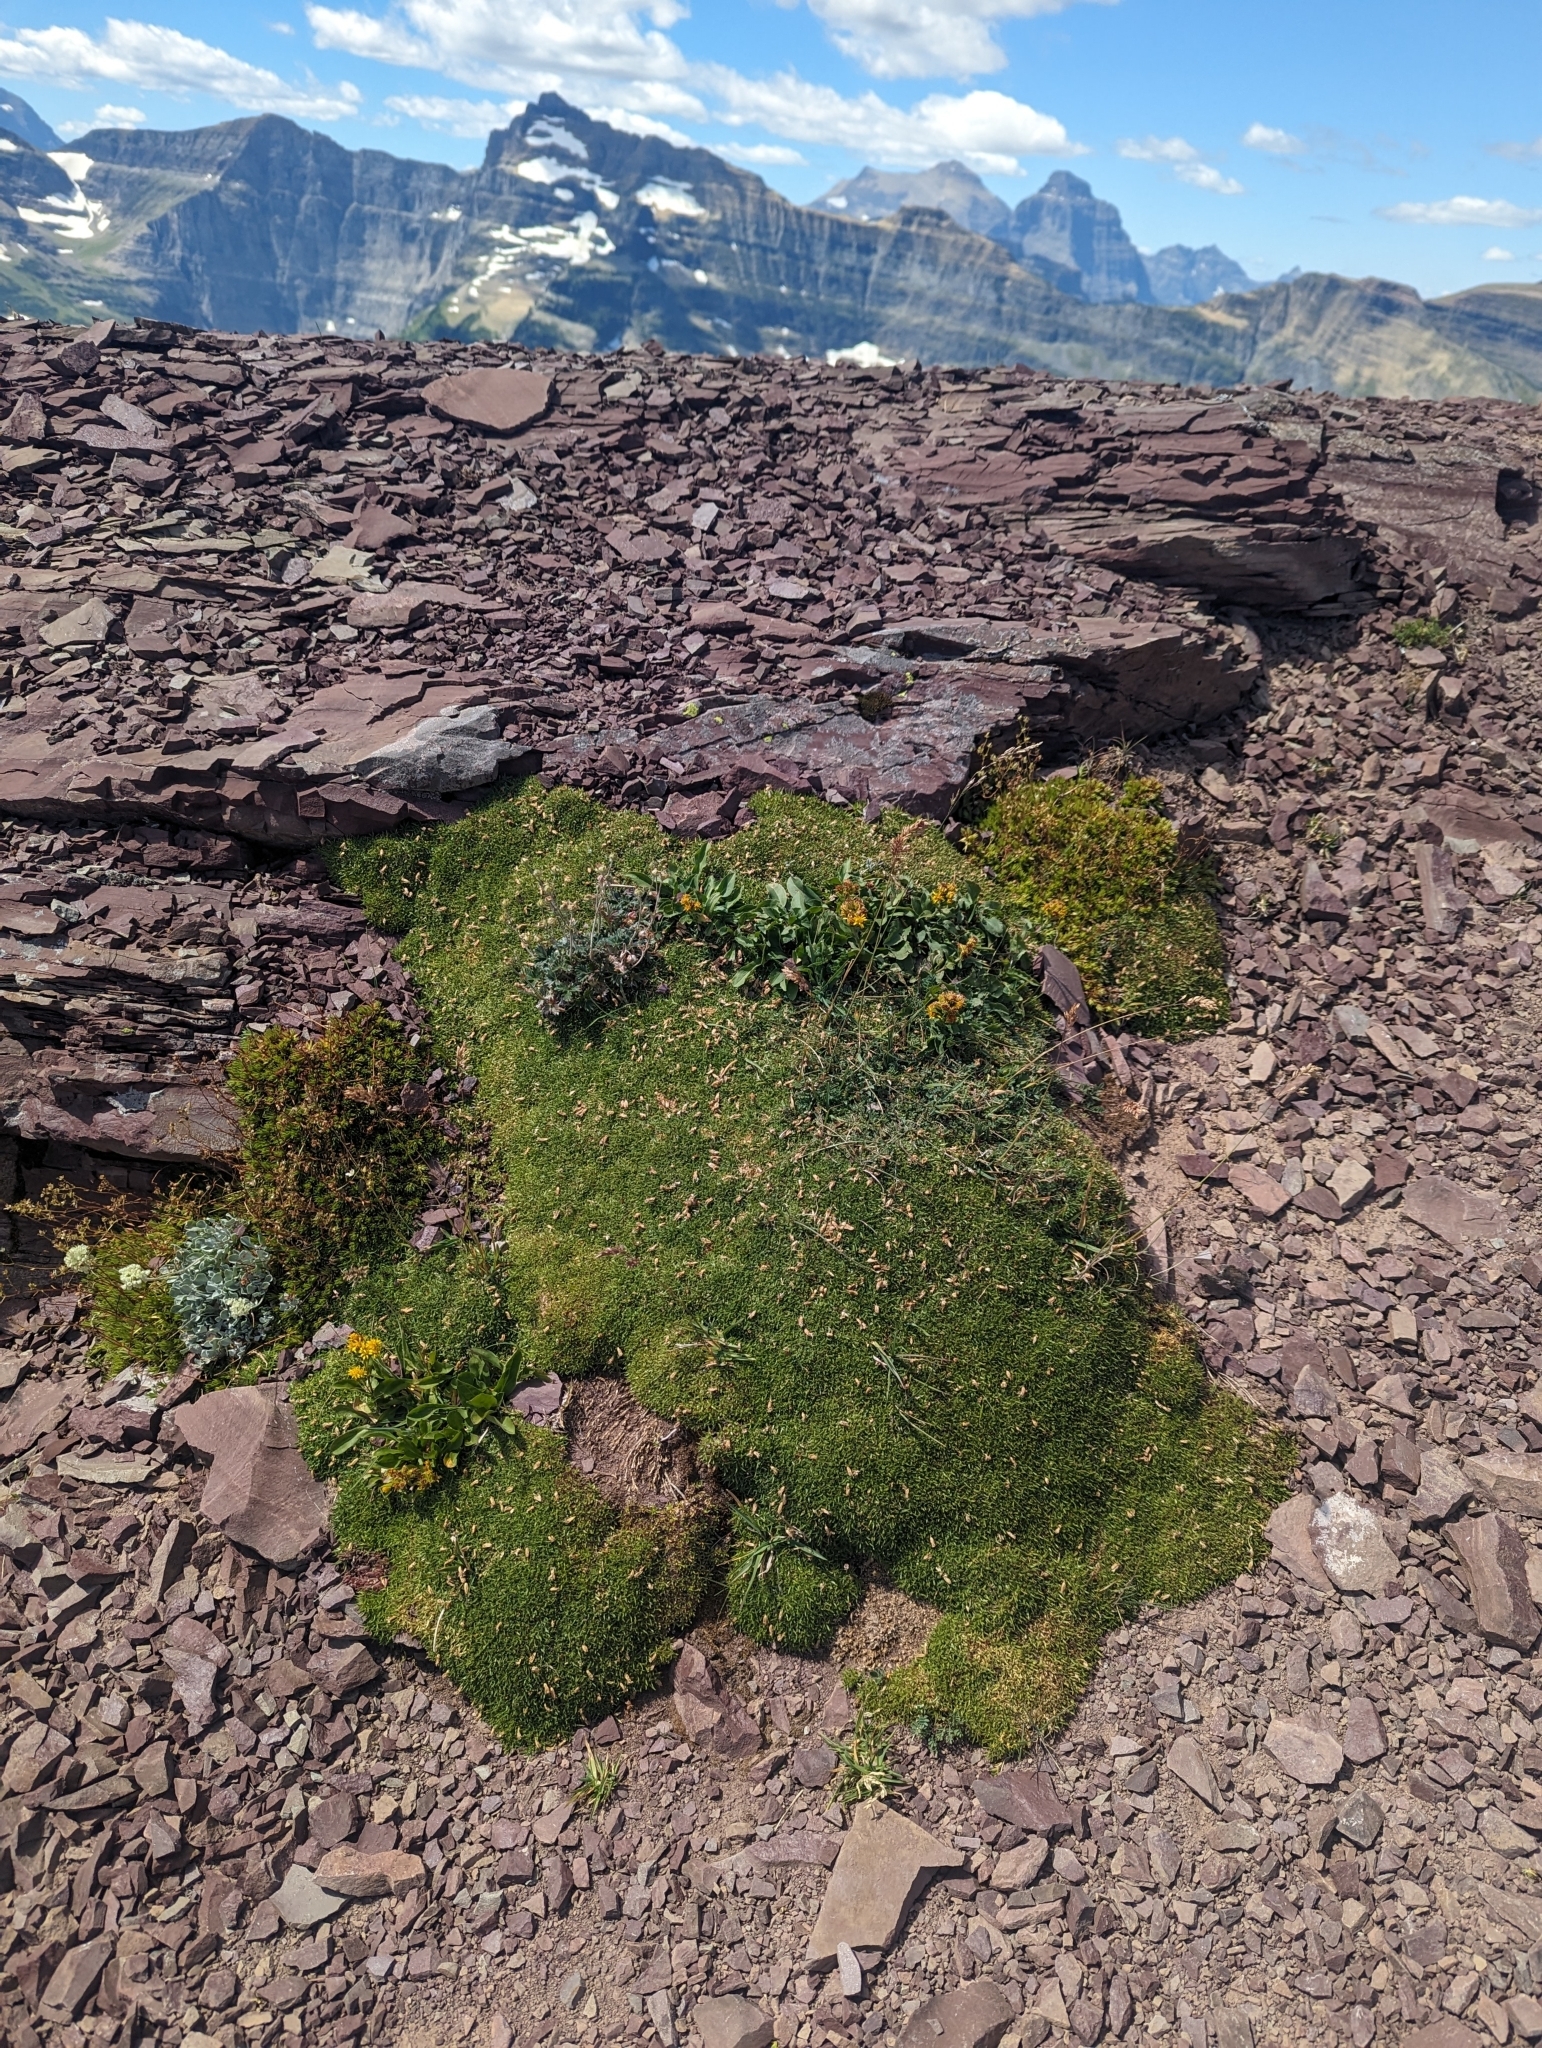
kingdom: Plantae
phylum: Tracheophyta
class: Magnoliopsida
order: Caryophyllales
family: Caryophyllaceae
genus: Silene
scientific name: Silene acaulis
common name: Moss campion
